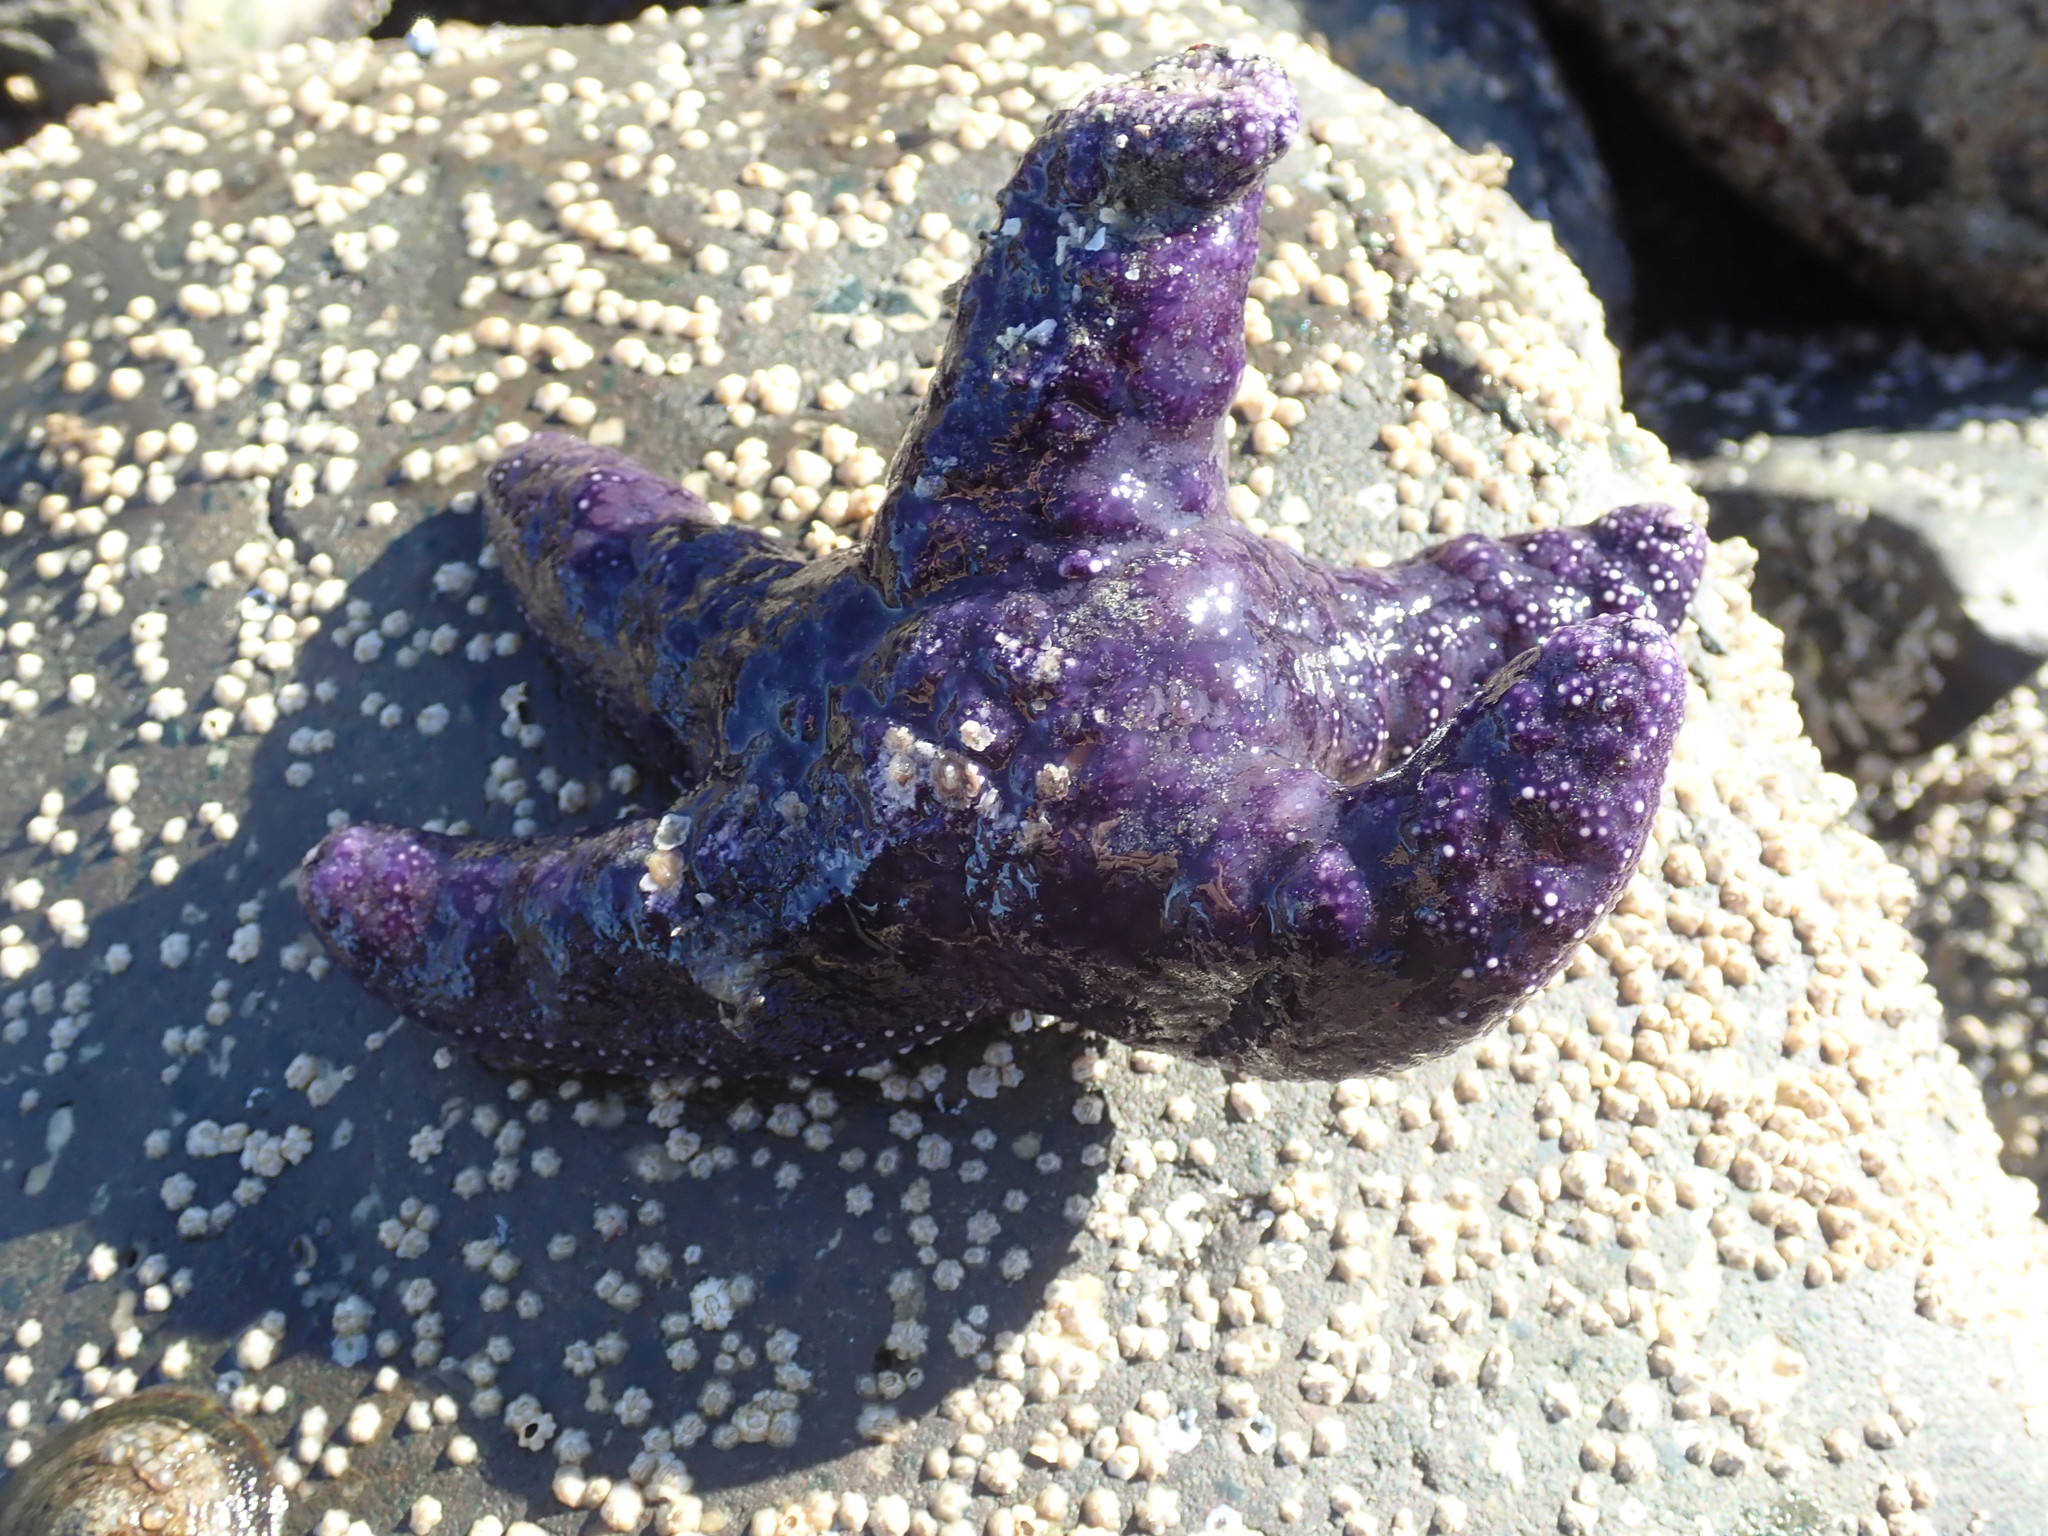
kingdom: Animalia
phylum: Echinodermata
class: Asteroidea
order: Forcipulatida
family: Asteriidae
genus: Pisaster
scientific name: Pisaster ochraceus
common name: Ochre stars
